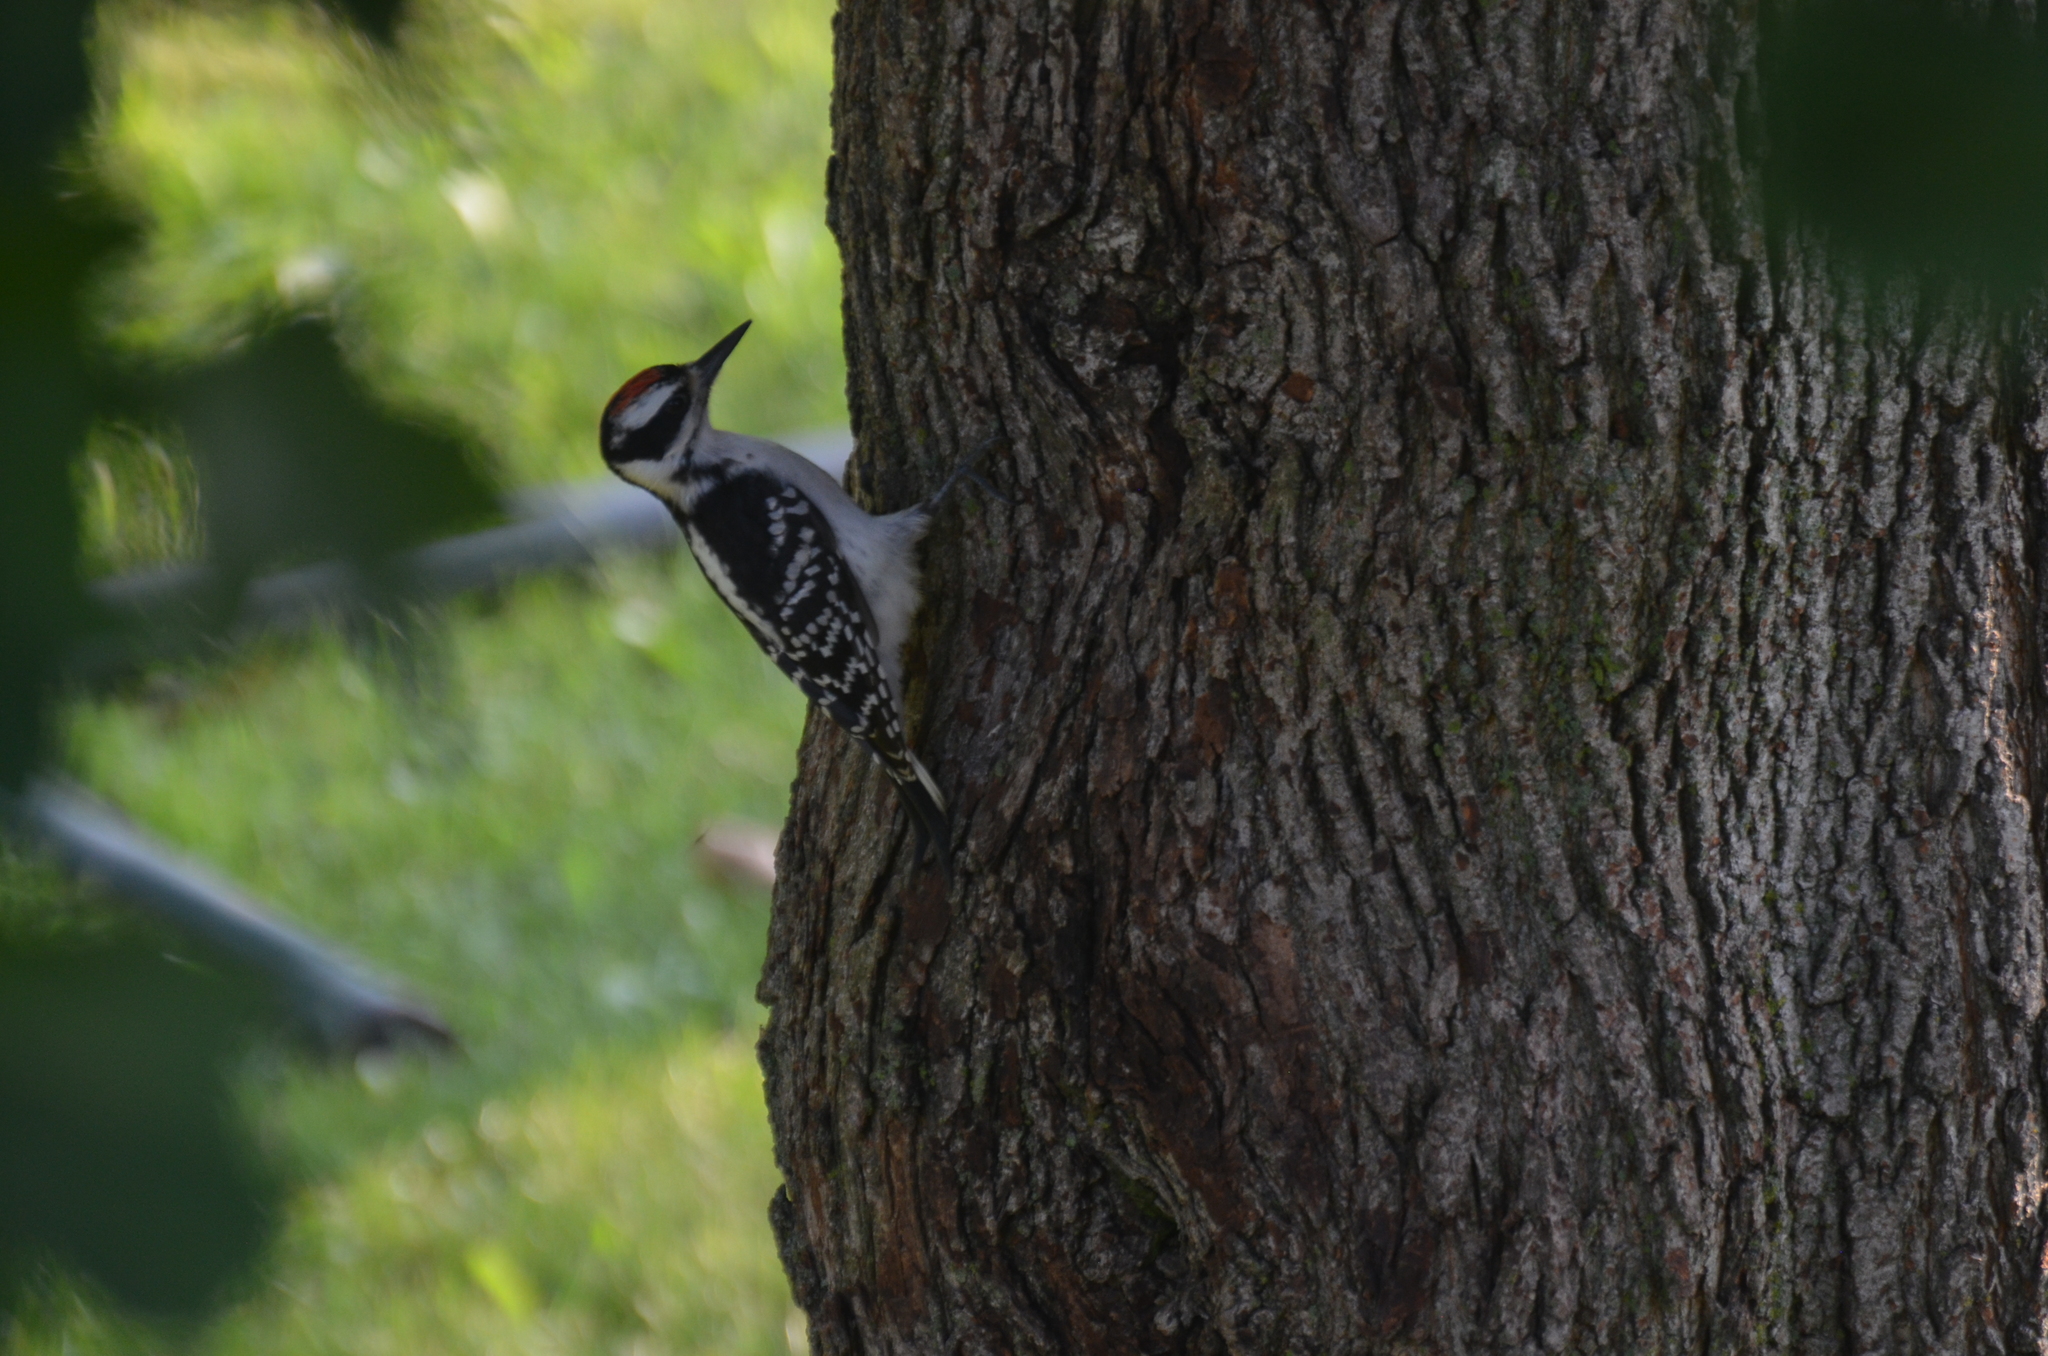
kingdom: Animalia
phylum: Chordata
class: Aves
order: Piciformes
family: Picidae
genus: Leuconotopicus
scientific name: Leuconotopicus villosus
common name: Hairy woodpecker
